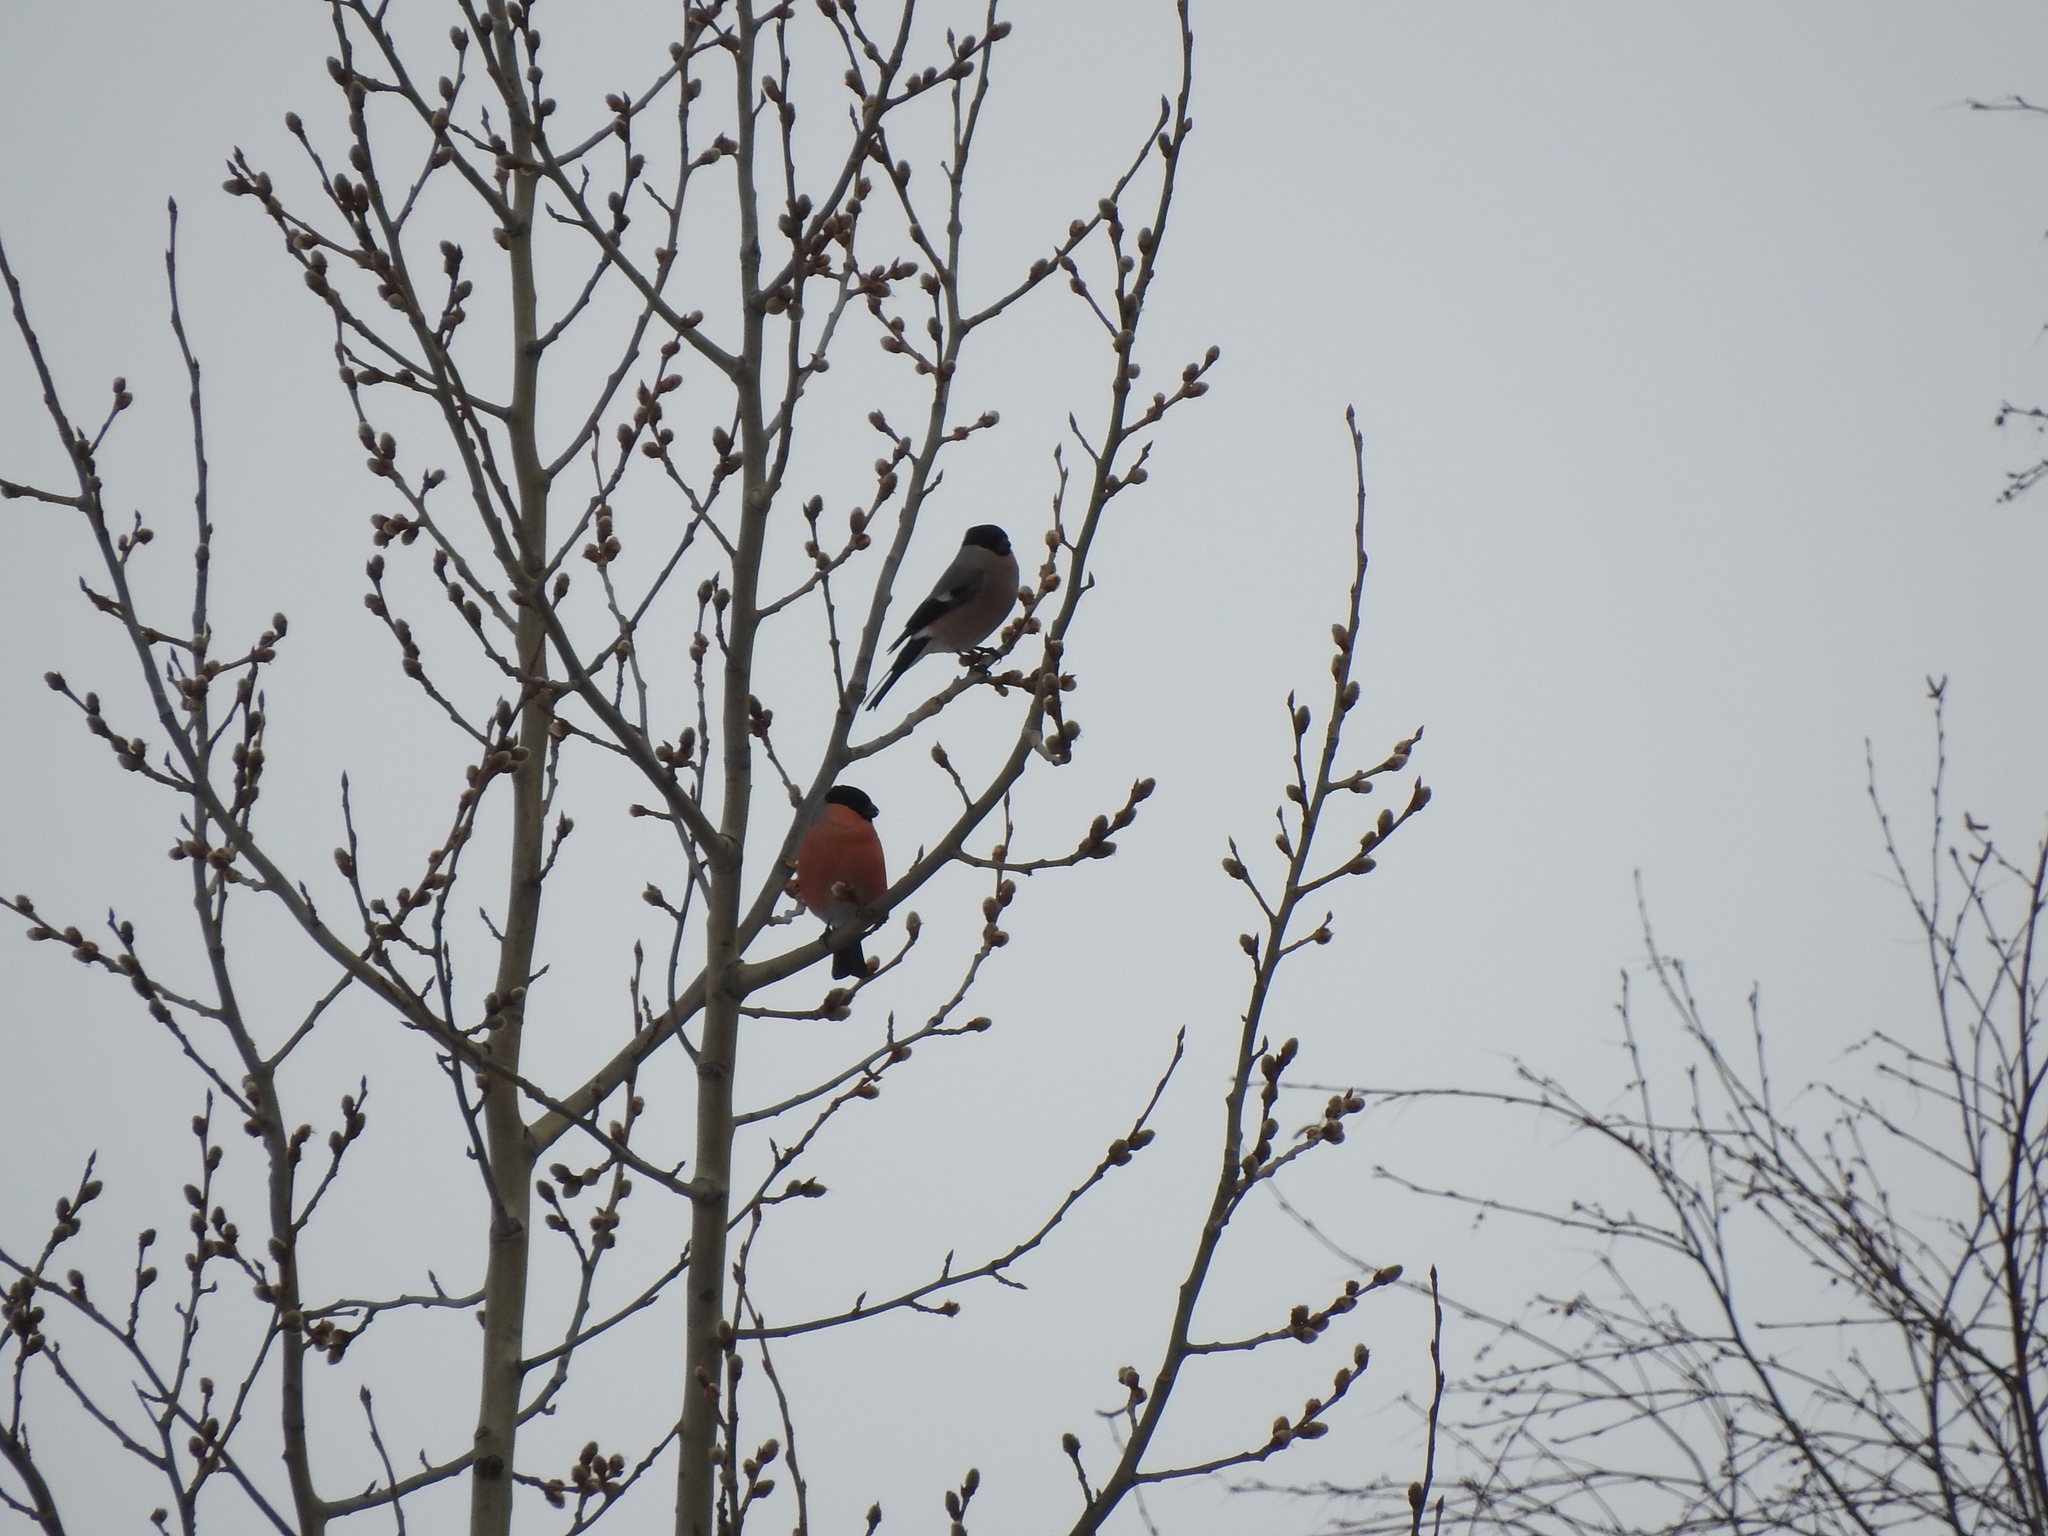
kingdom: Animalia
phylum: Chordata
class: Aves
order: Passeriformes
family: Fringillidae
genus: Pyrrhula
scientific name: Pyrrhula pyrrhula
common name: Eurasian bullfinch
